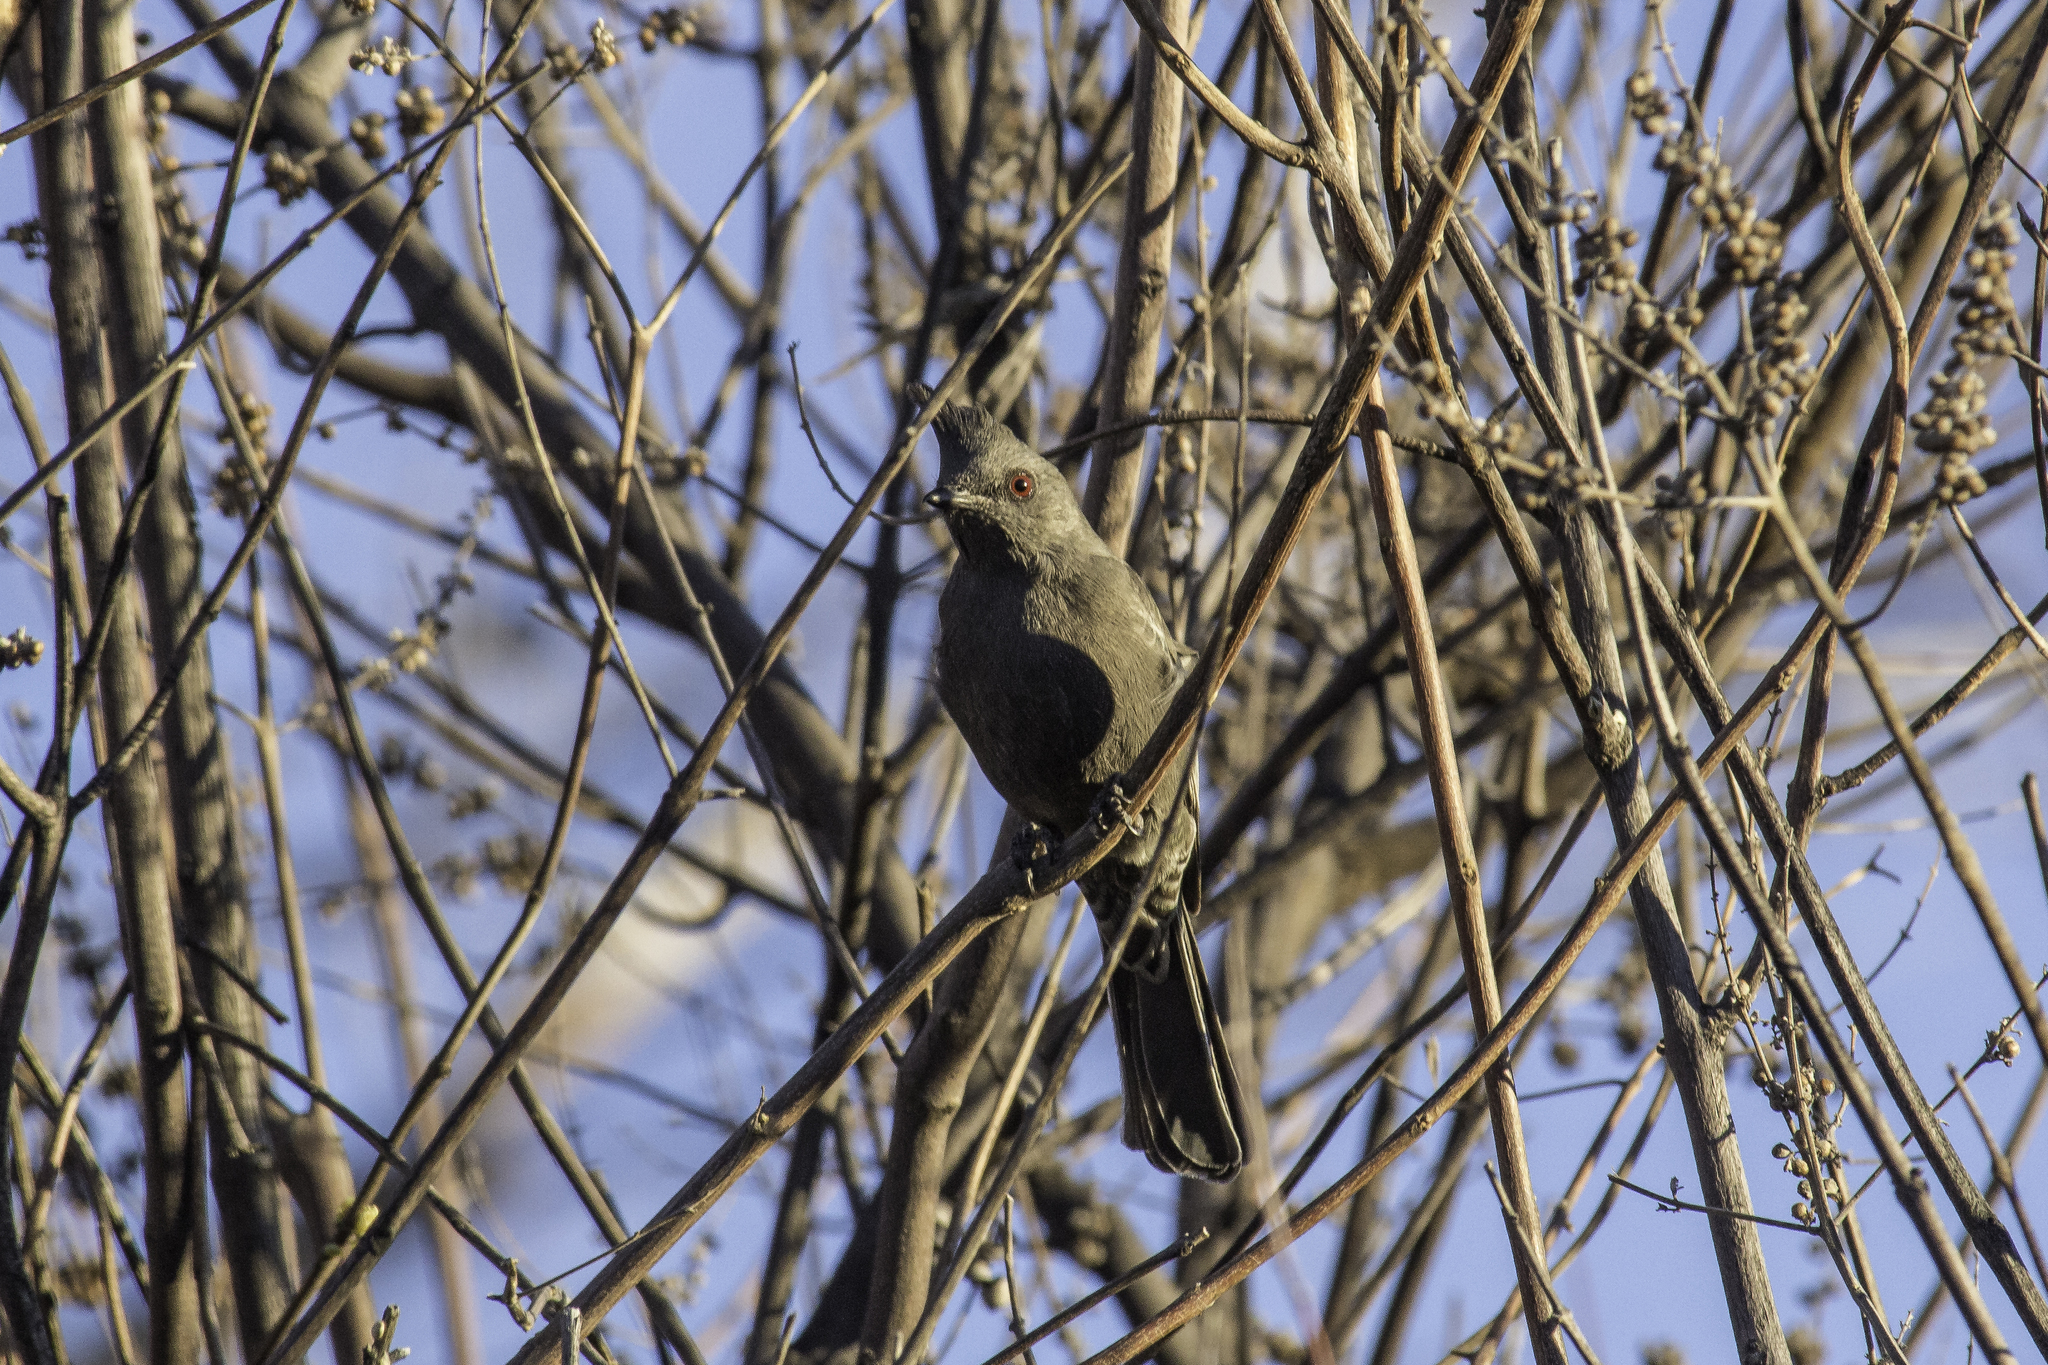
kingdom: Animalia
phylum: Chordata
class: Aves
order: Passeriformes
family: Ptilogonatidae
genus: Phainopepla
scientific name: Phainopepla nitens
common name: Phainopepla
